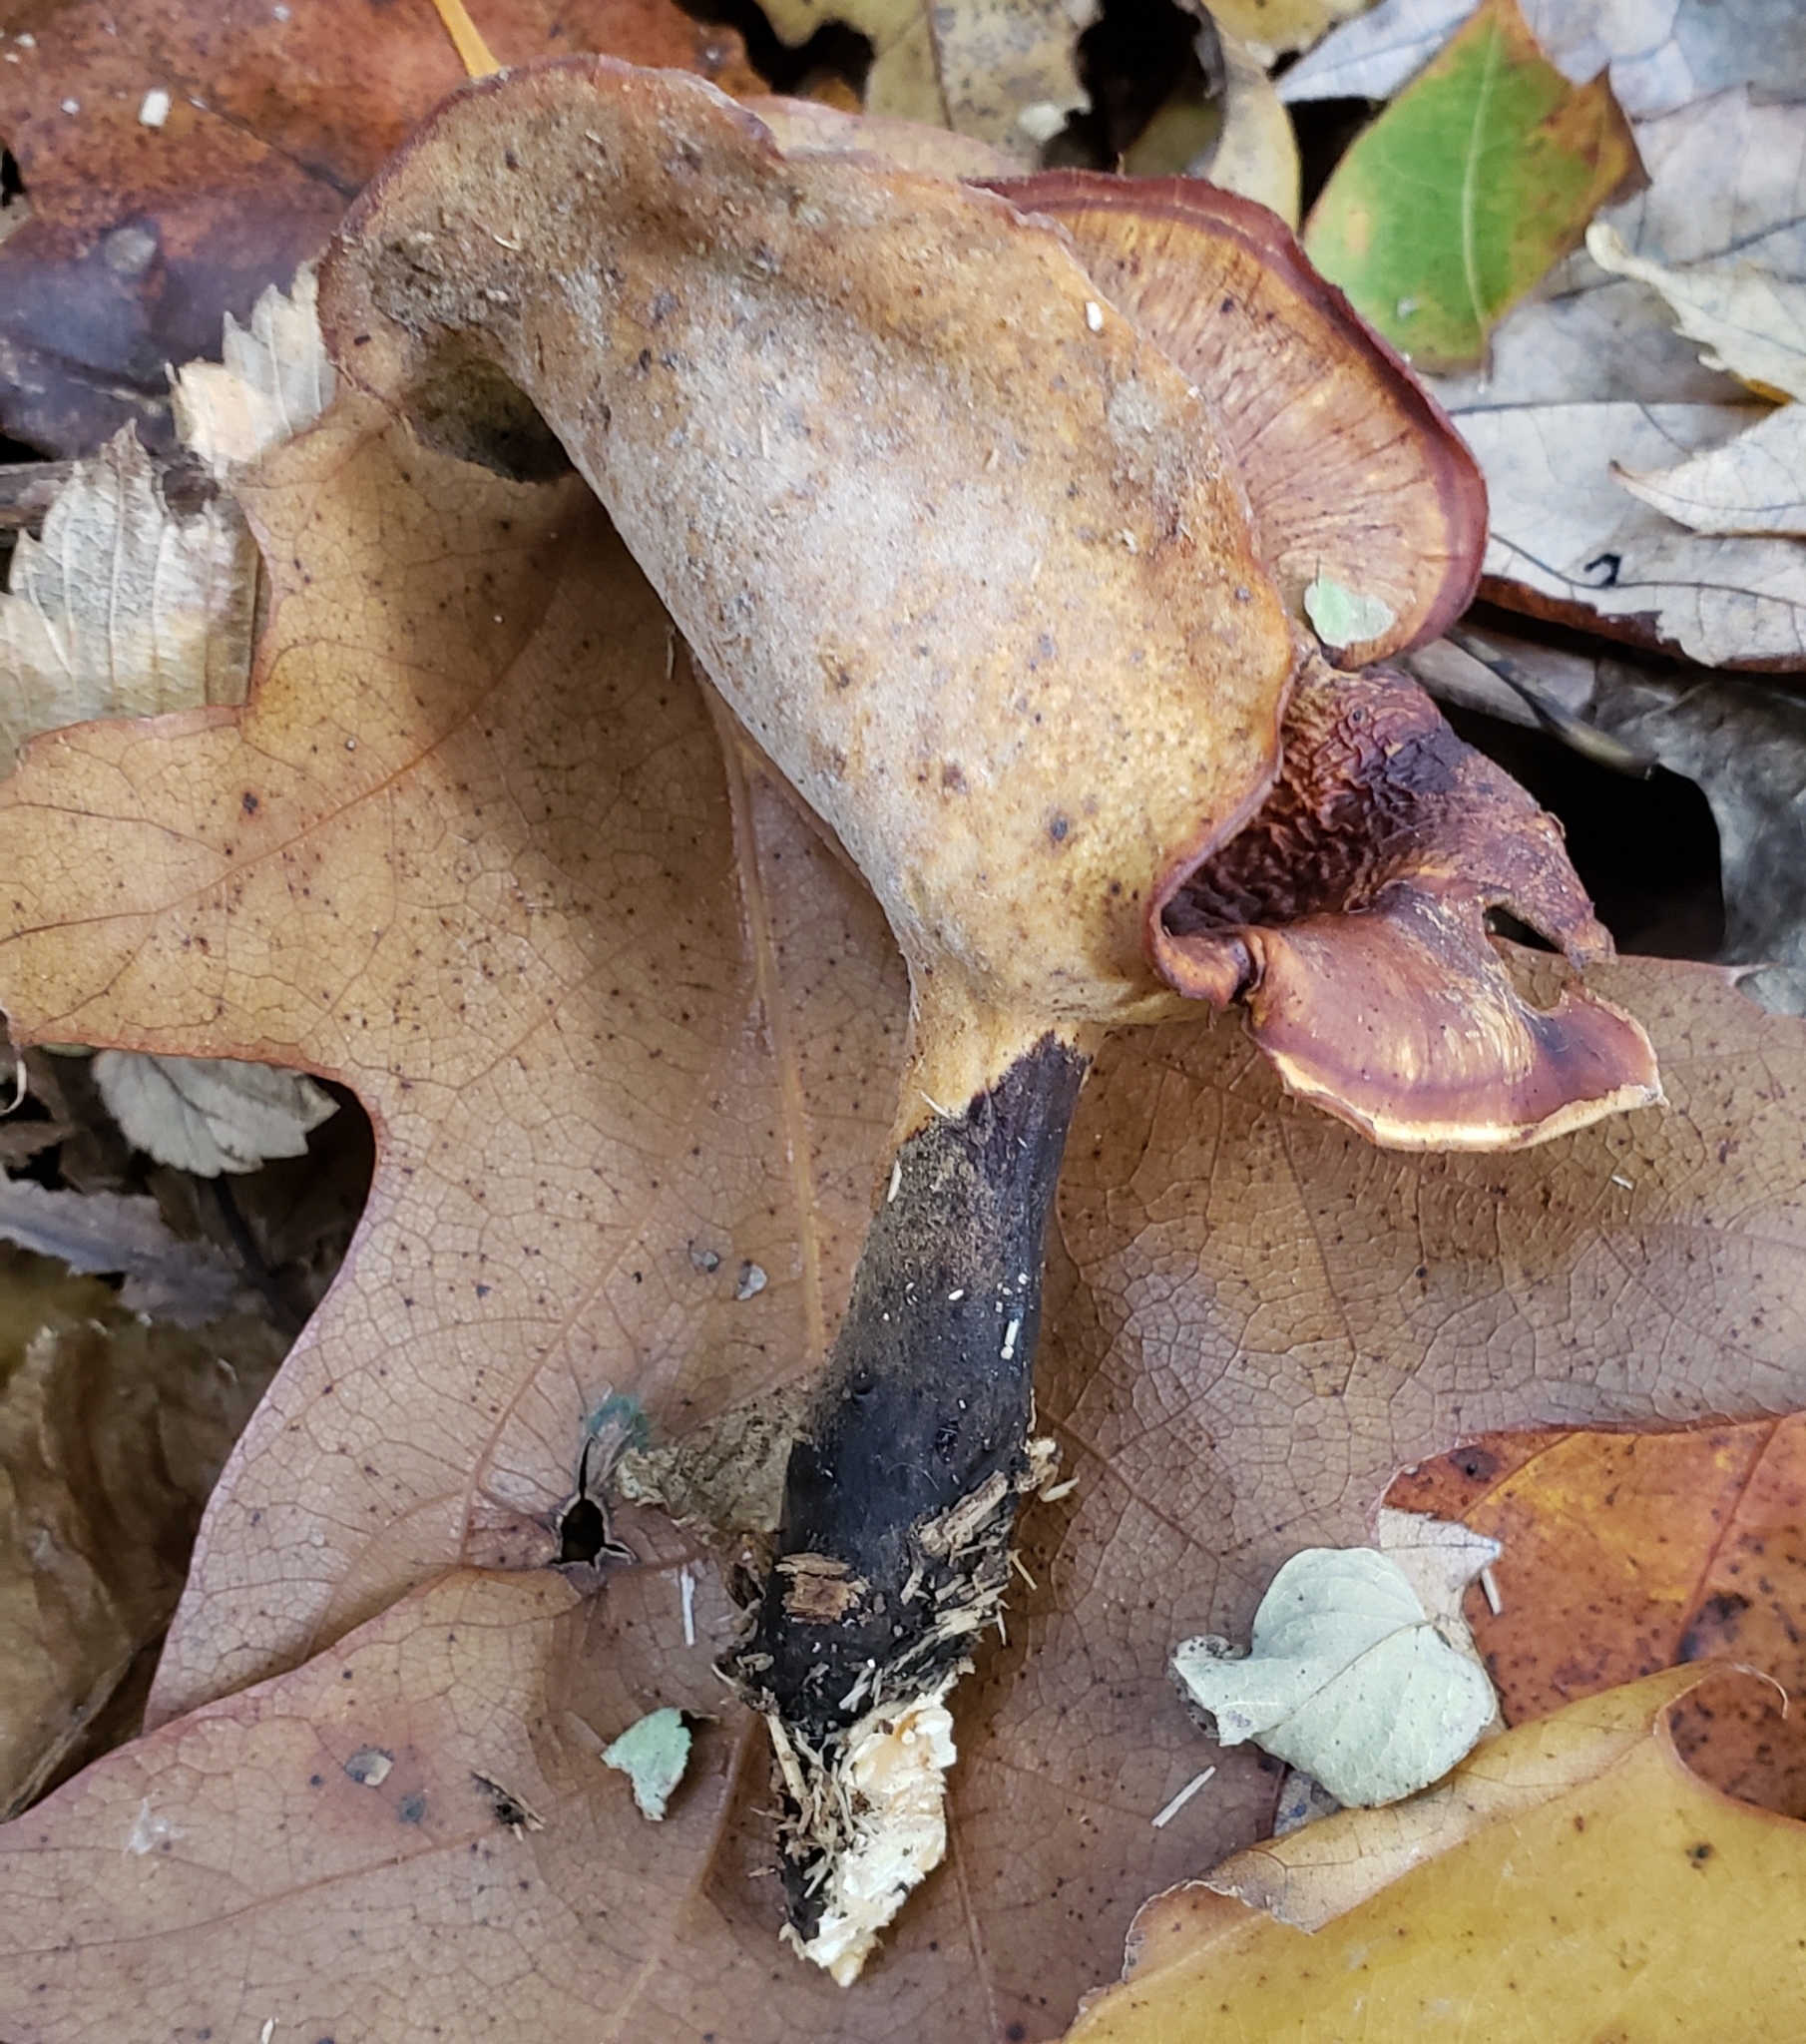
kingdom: Fungi
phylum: Basidiomycota
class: Agaricomycetes
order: Polyporales
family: Polyporaceae
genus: Picipes
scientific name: Picipes badius
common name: Bay polypore
